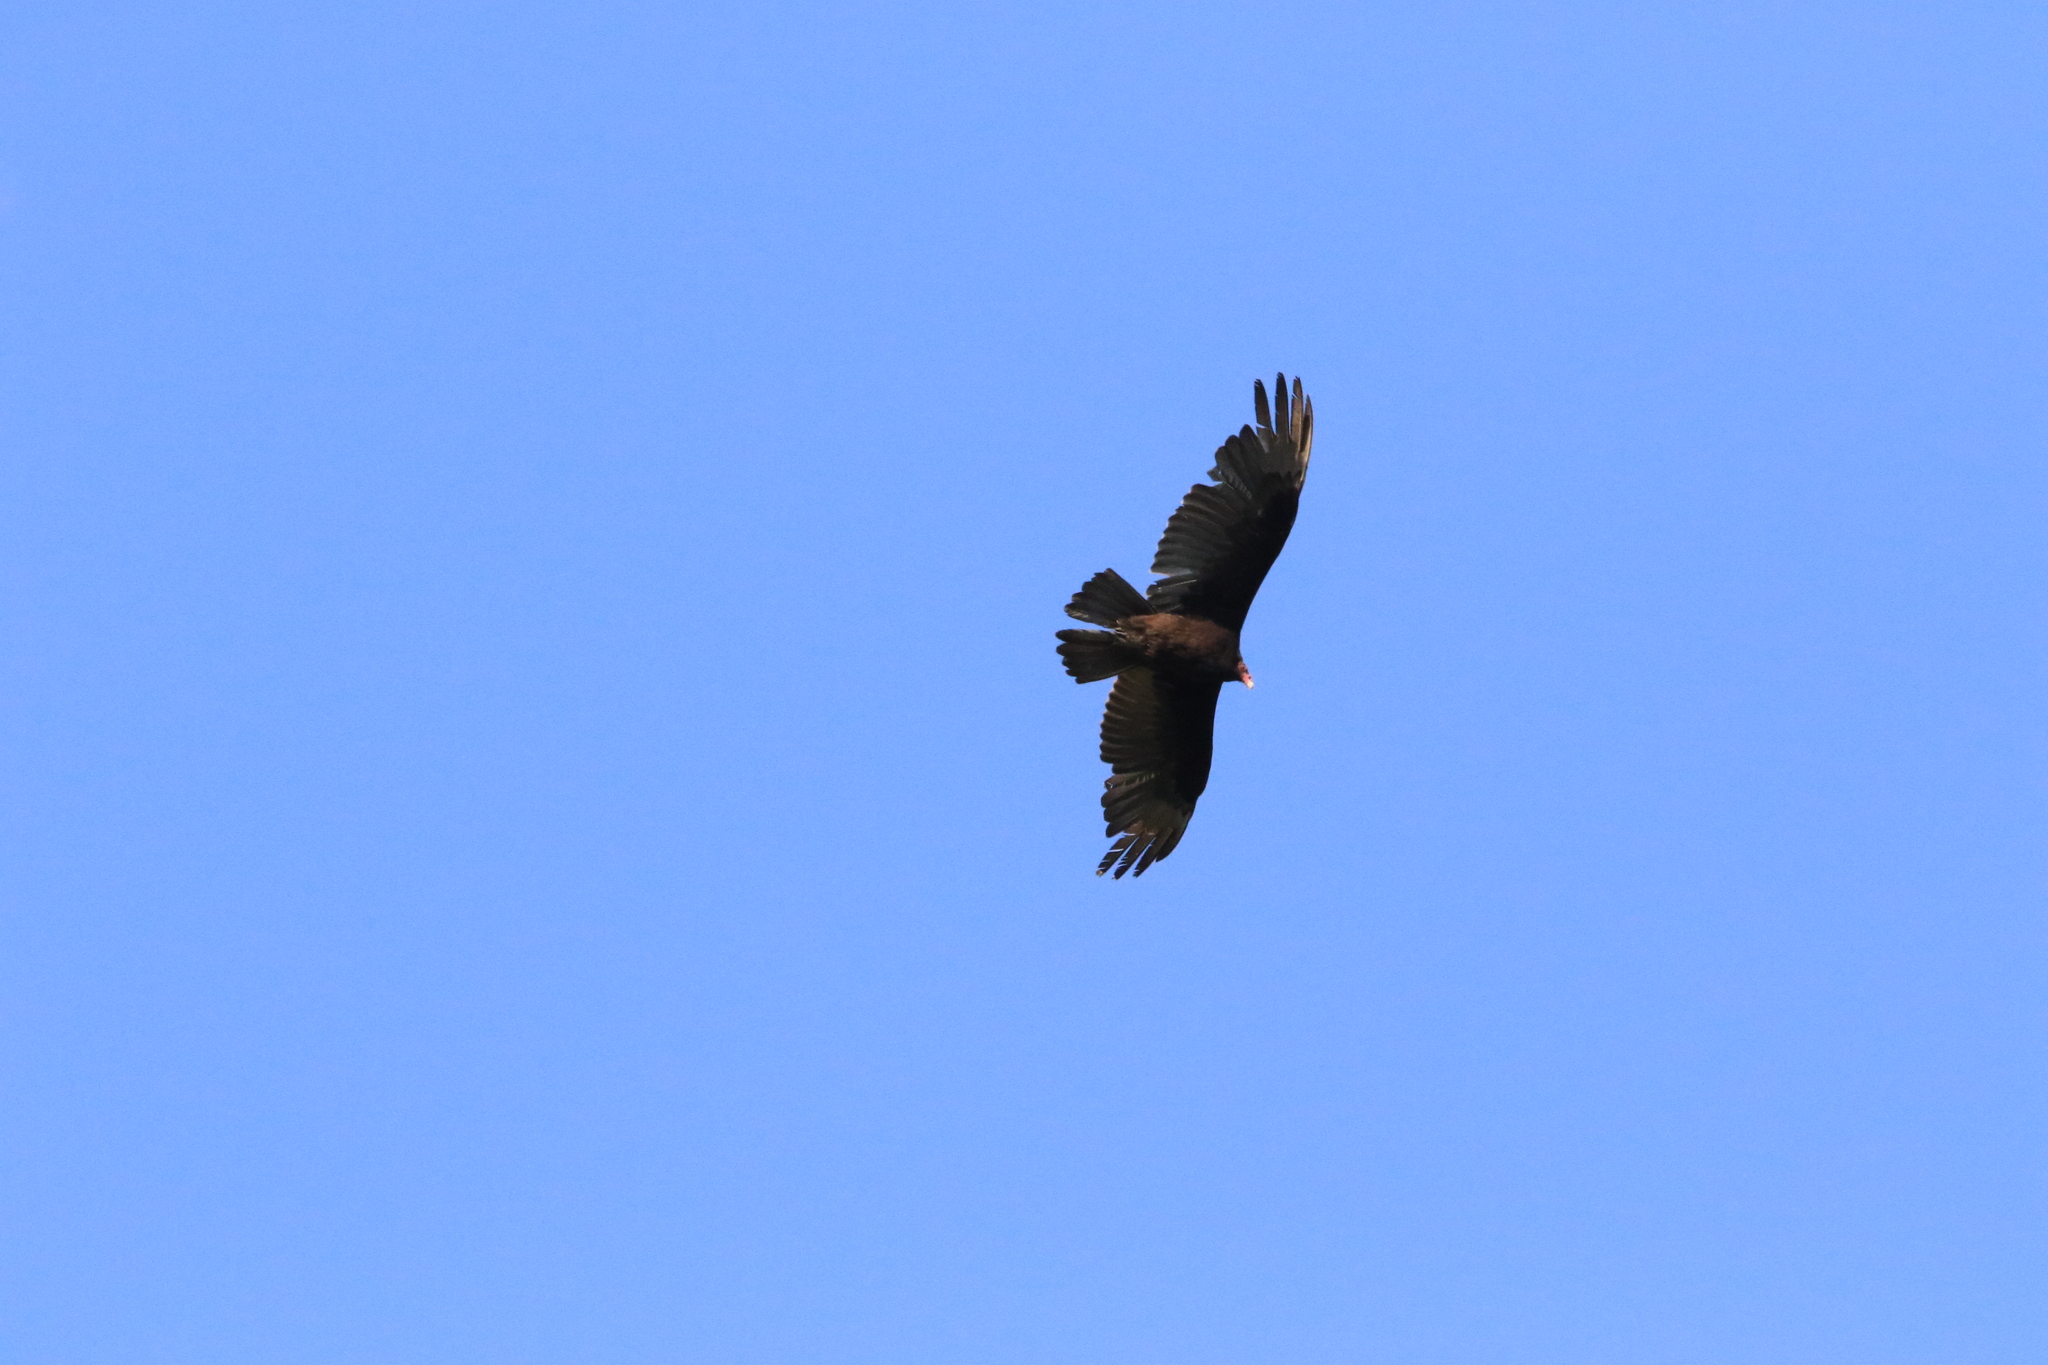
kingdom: Animalia
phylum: Chordata
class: Aves
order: Accipitriformes
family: Cathartidae
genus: Cathartes
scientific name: Cathartes aura
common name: Turkey vulture
